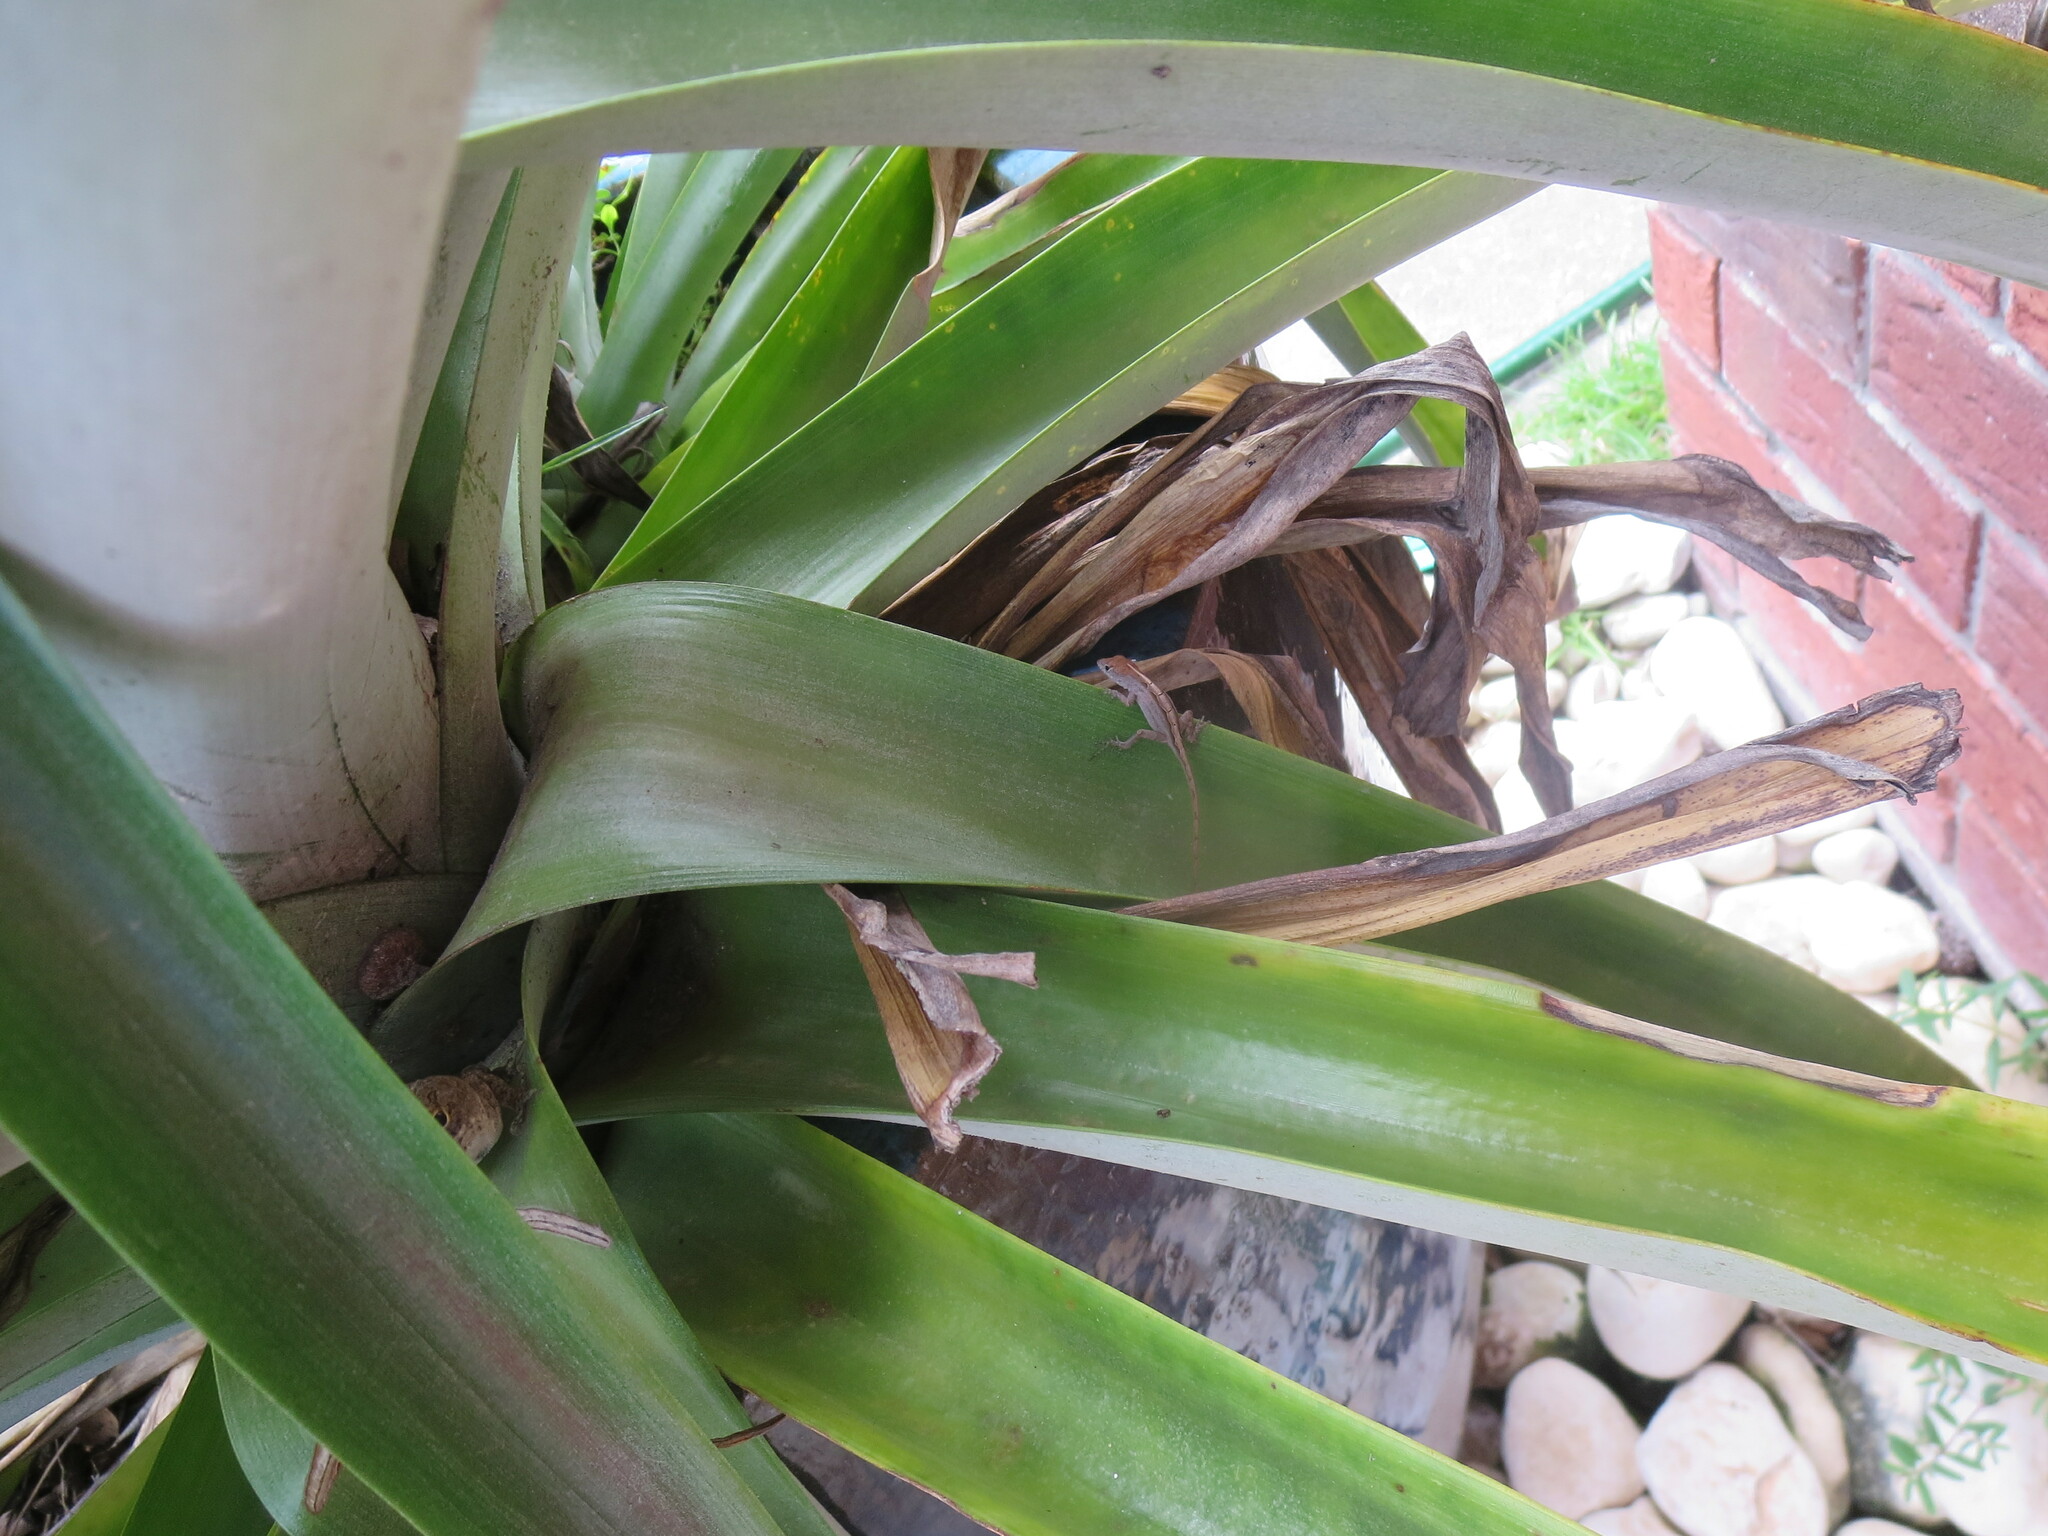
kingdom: Animalia
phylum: Chordata
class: Squamata
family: Dactyloidae
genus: Anolis
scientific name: Anolis sagrei
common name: Brown anole
